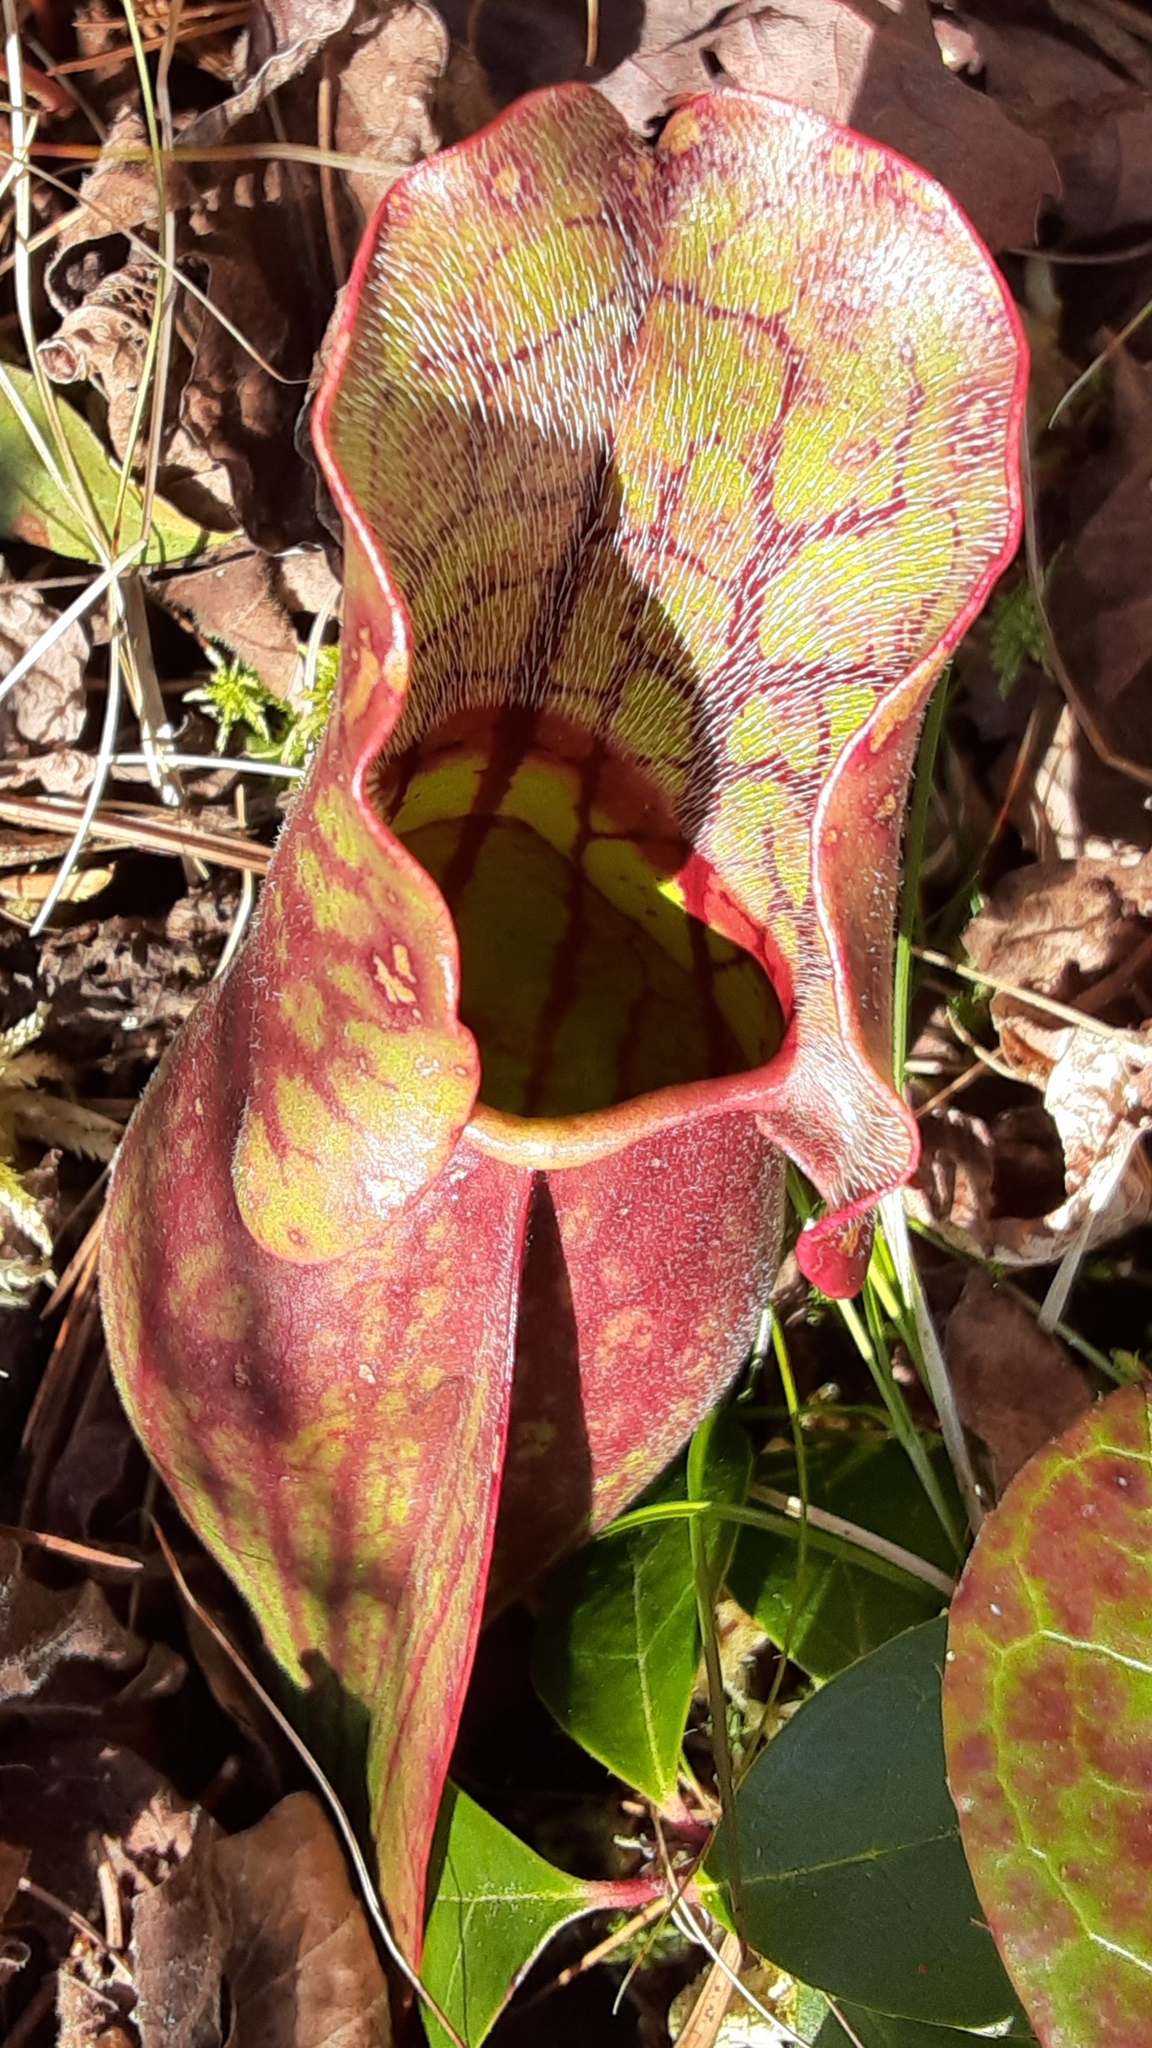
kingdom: Plantae
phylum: Tracheophyta
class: Magnoliopsida
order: Ericales
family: Sarraceniaceae
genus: Sarracenia
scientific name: Sarracenia purpurea
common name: Pitcherplant
